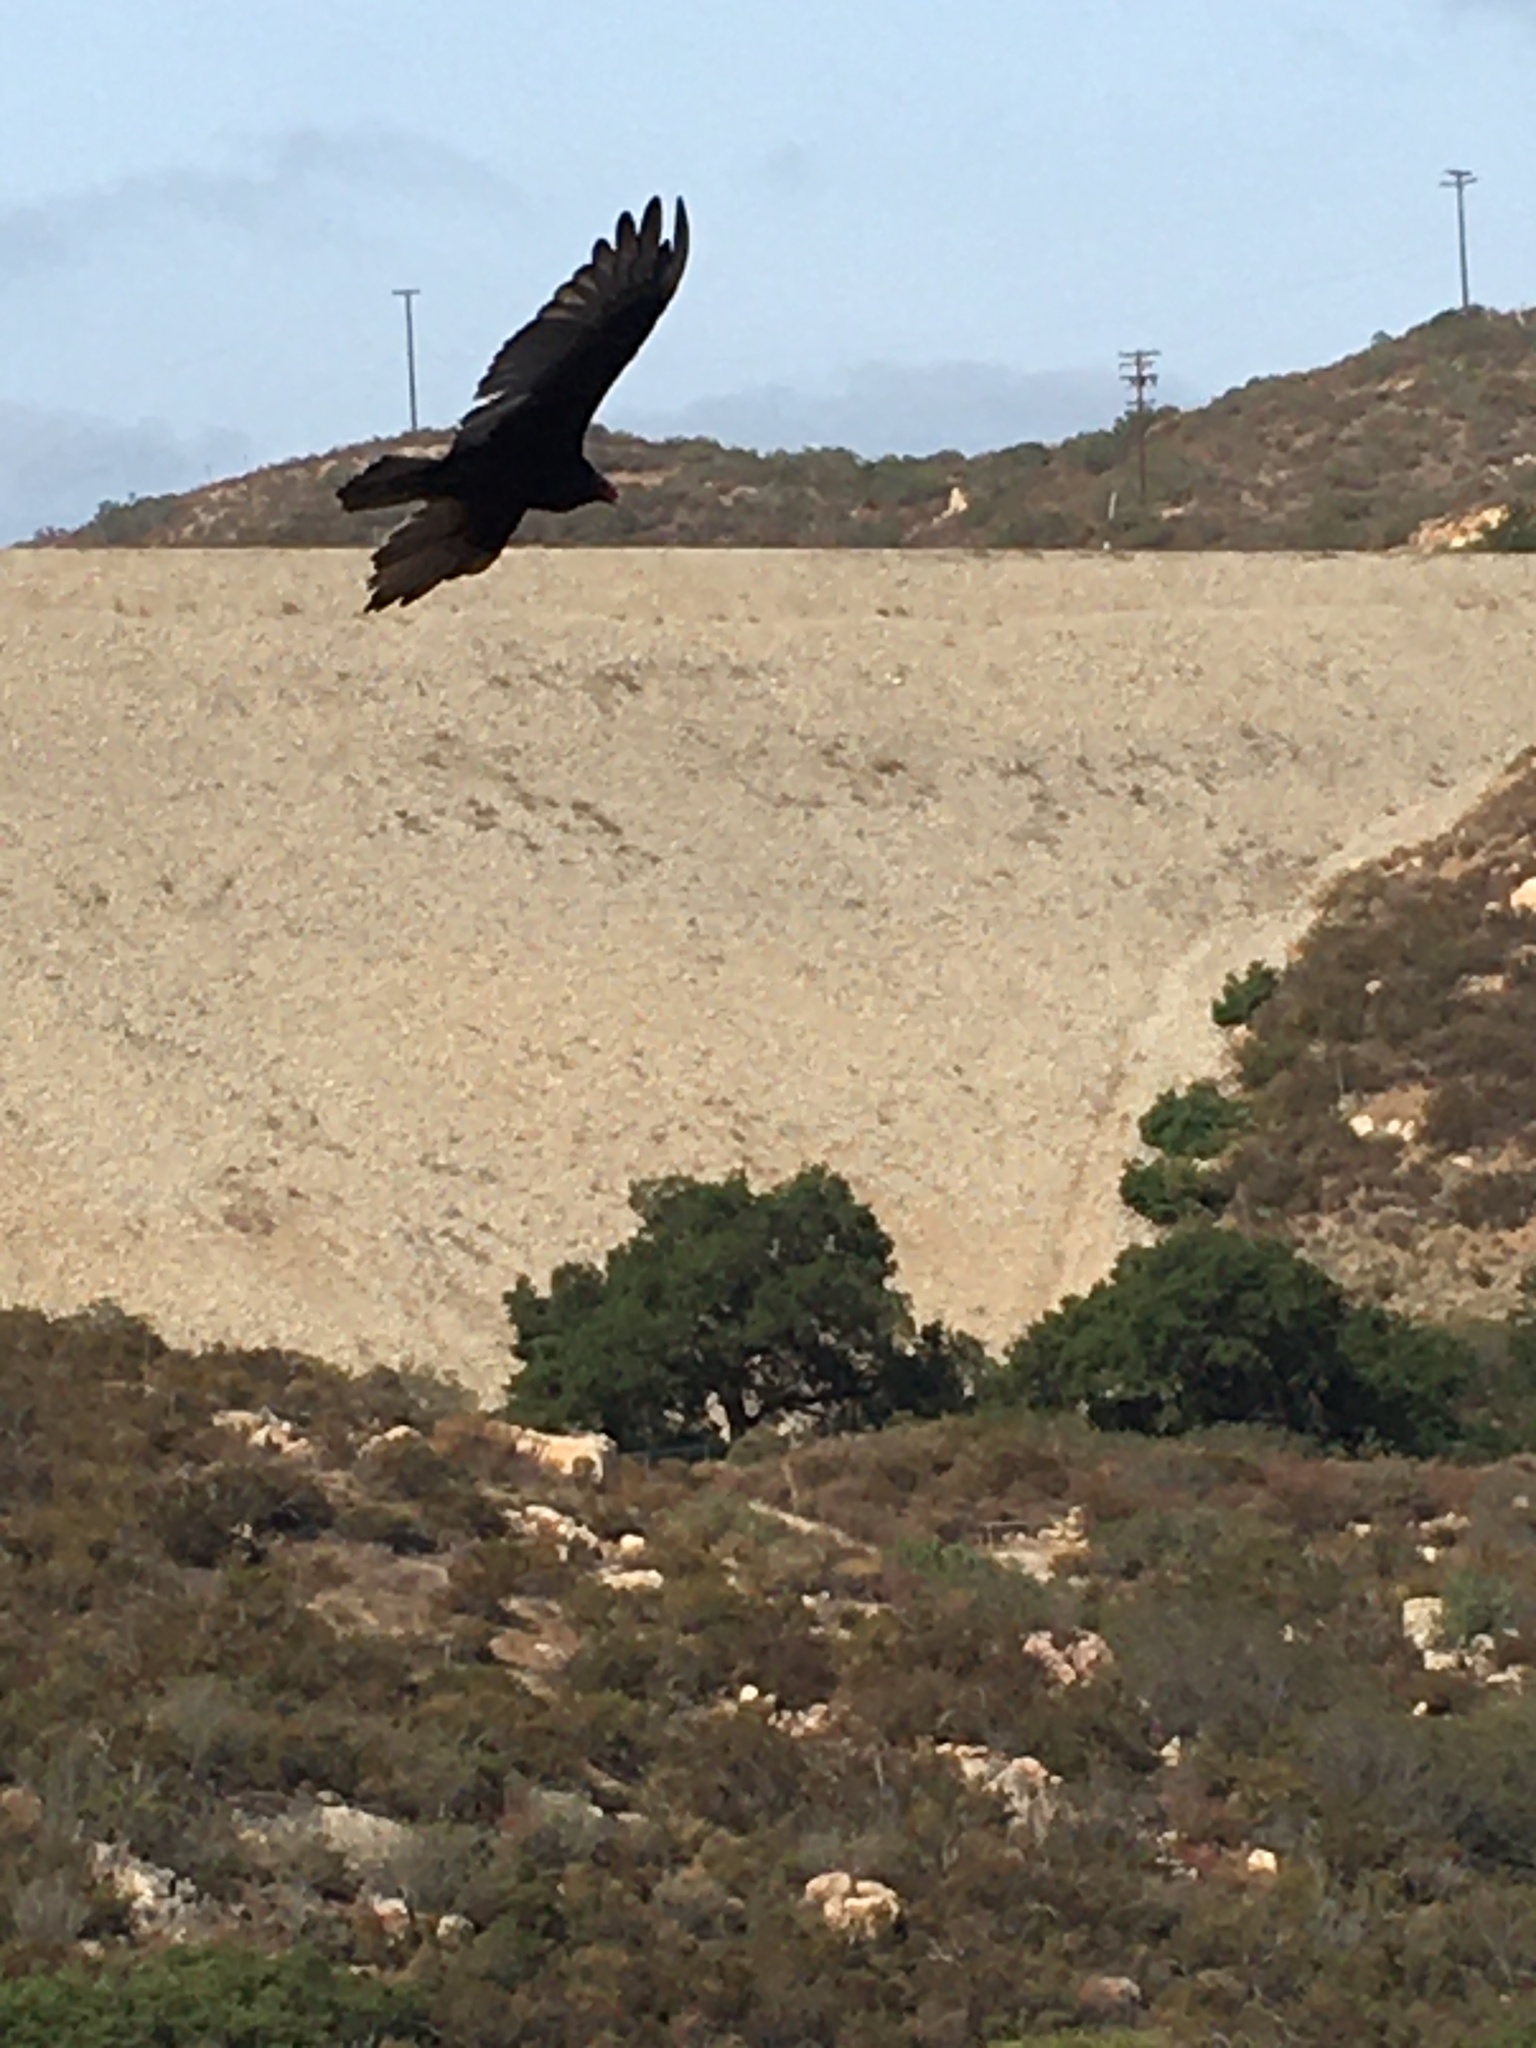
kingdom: Animalia
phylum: Chordata
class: Aves
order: Accipitriformes
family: Cathartidae
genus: Cathartes
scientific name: Cathartes aura
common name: Turkey vulture
